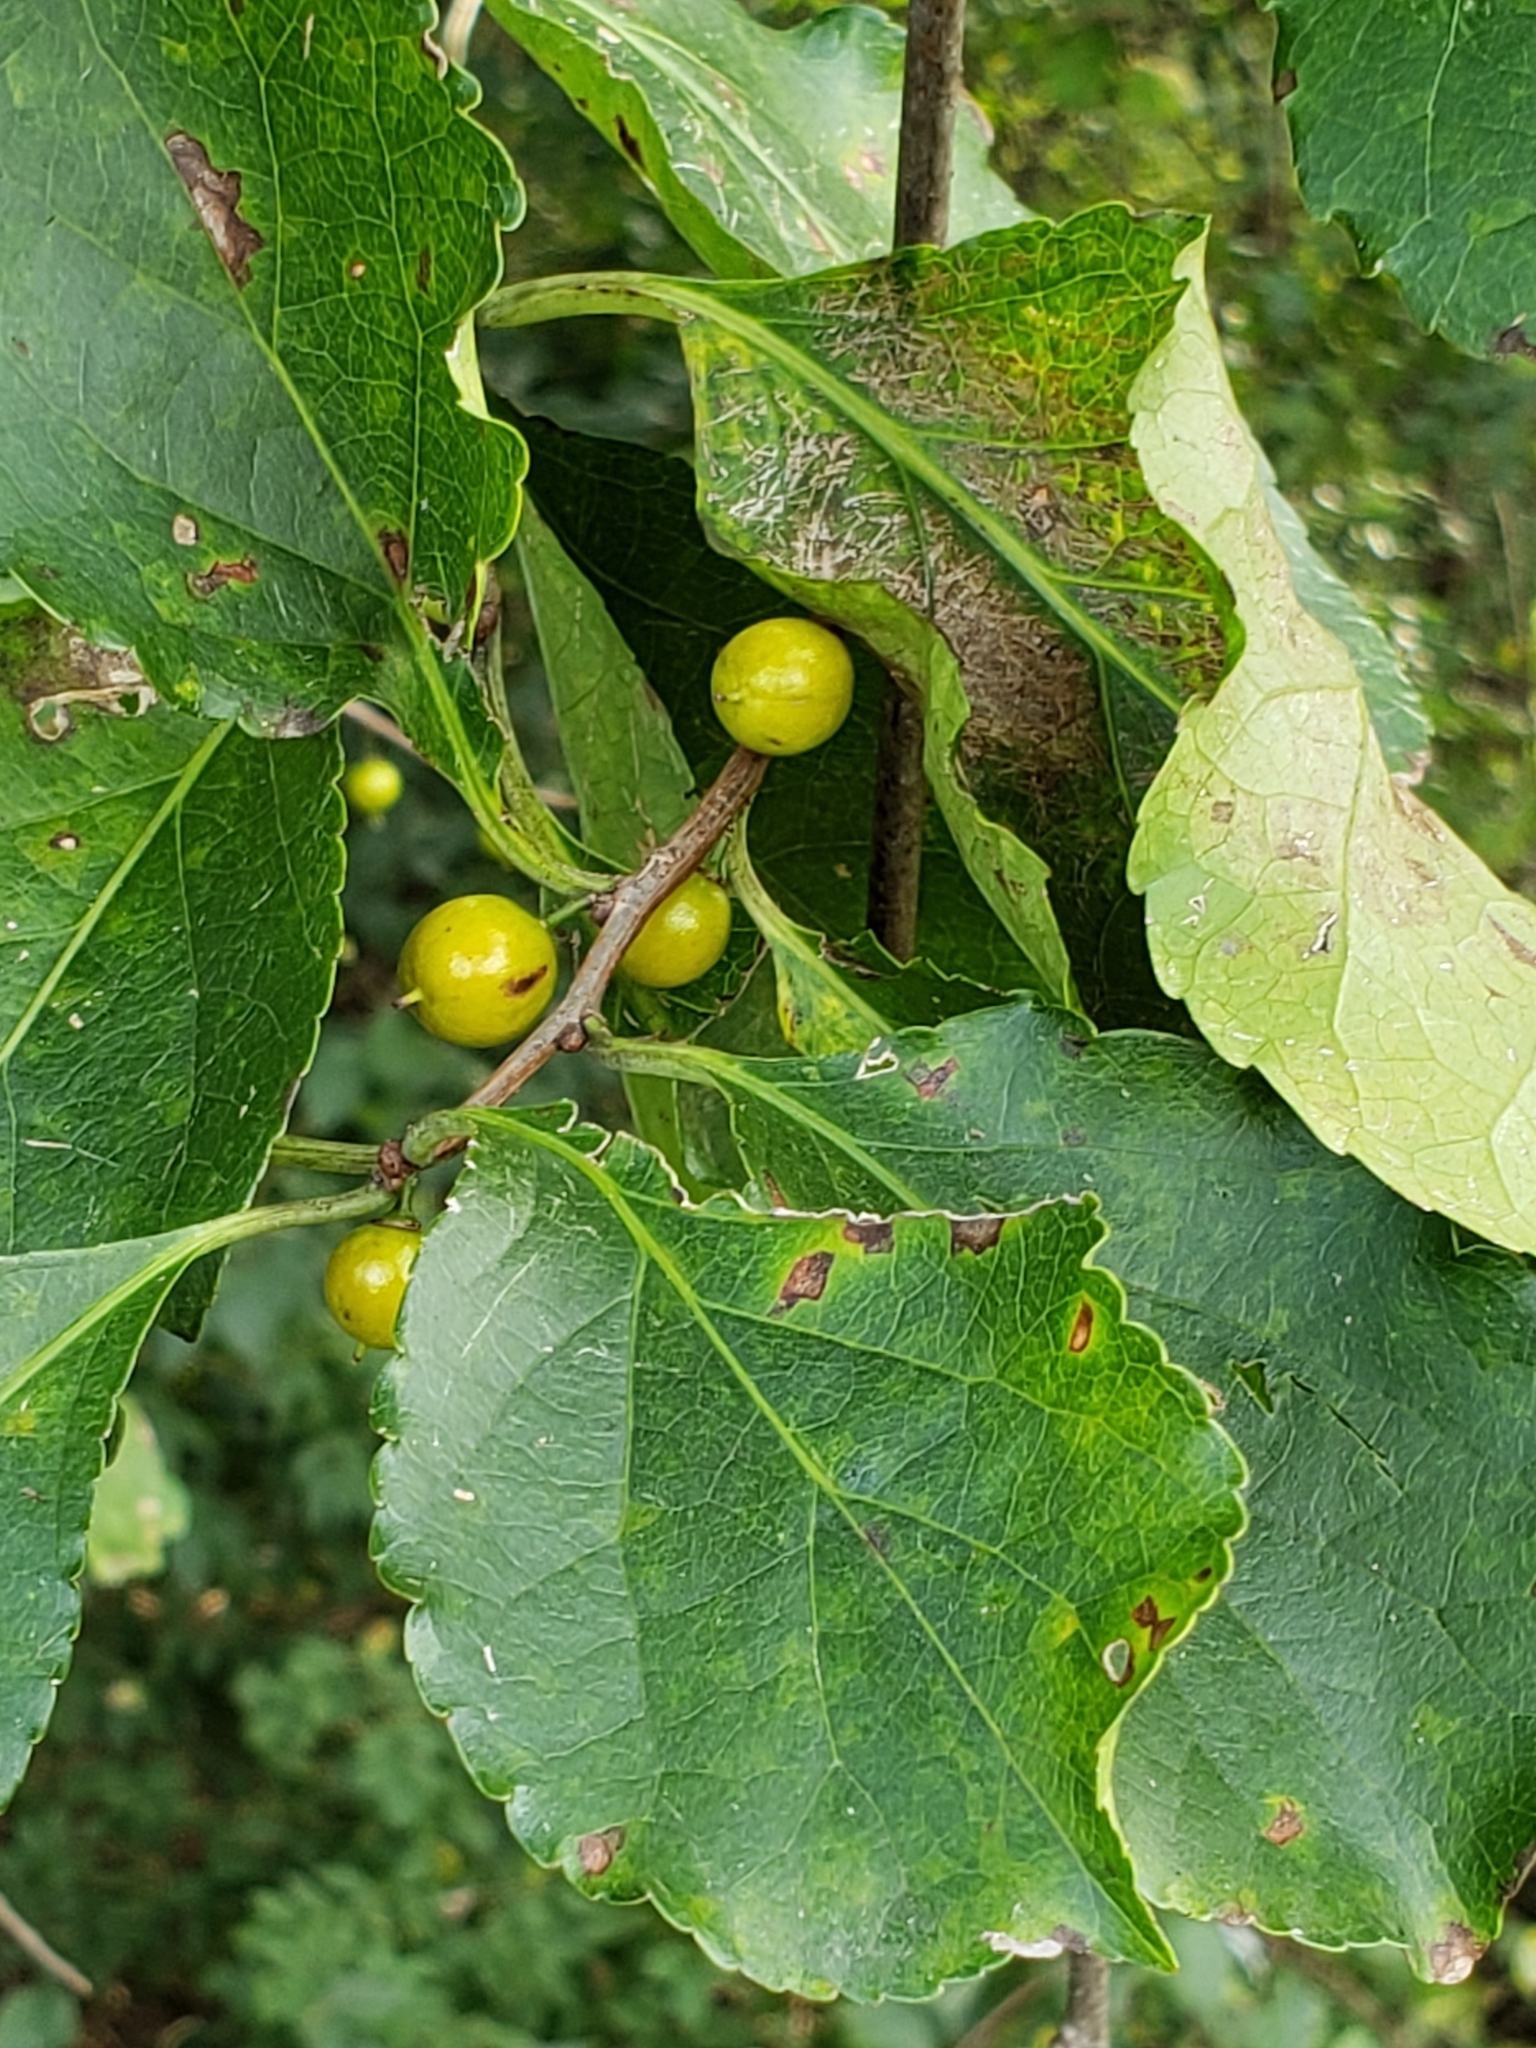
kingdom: Plantae
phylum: Tracheophyta
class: Magnoliopsida
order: Celastrales
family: Celastraceae
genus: Celastrus
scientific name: Celastrus orbiculatus
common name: Oriental bittersweet
